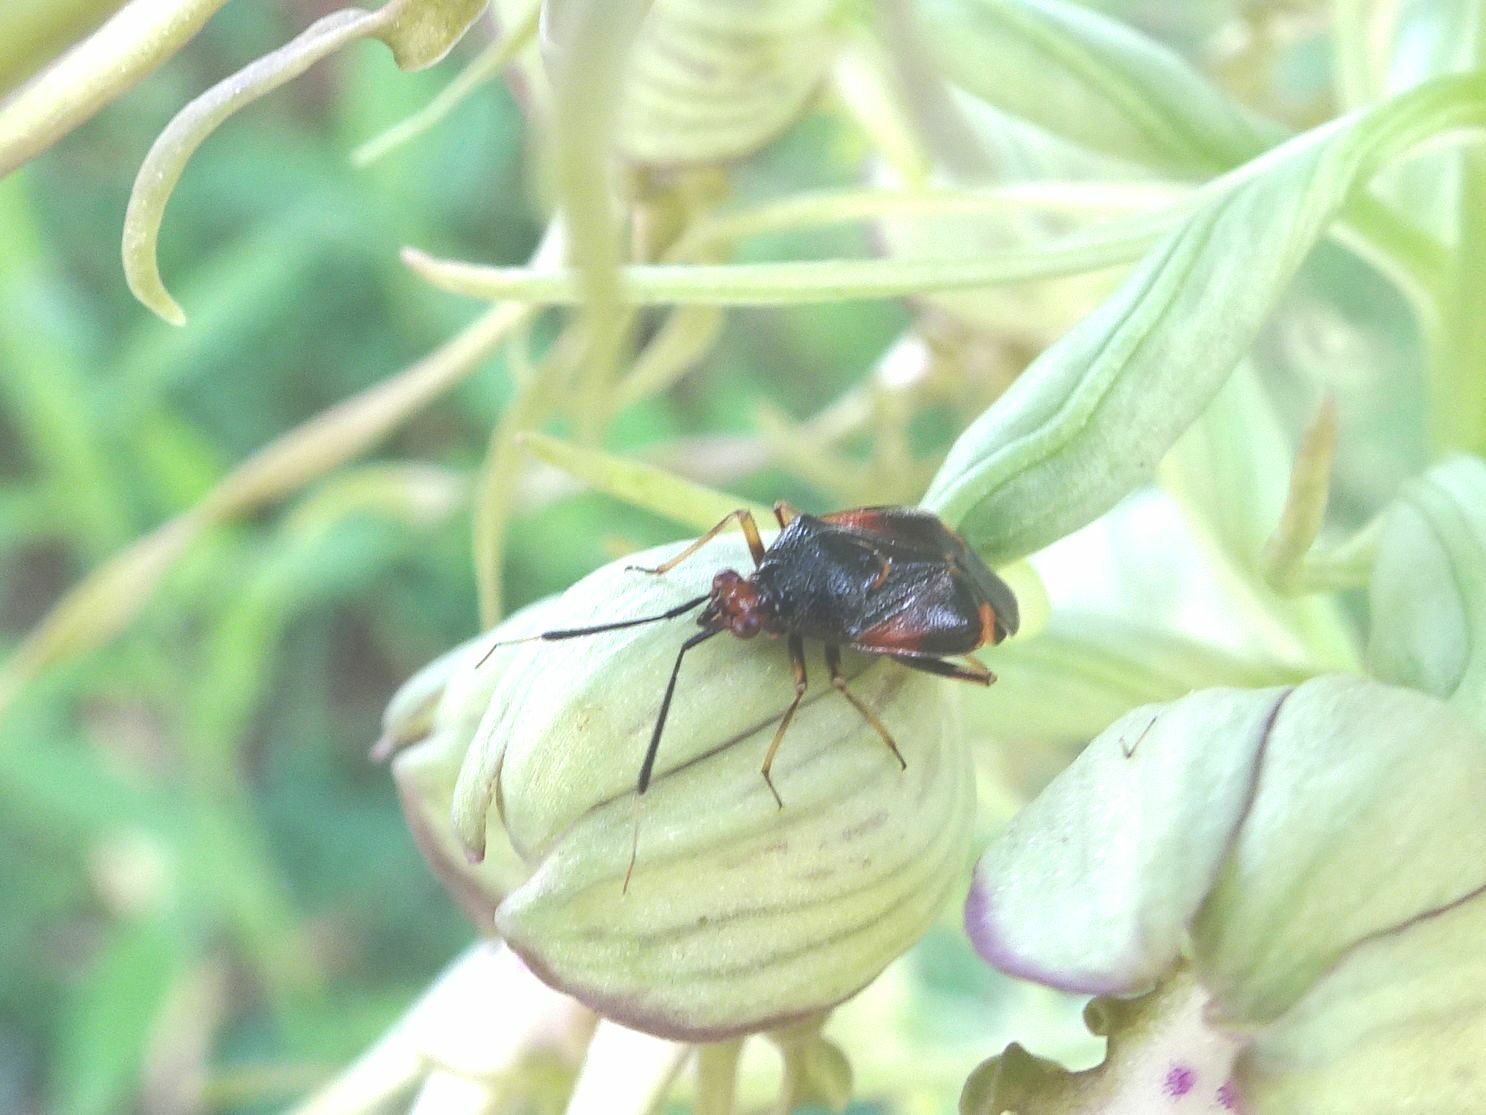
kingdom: Animalia
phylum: Arthropoda
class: Insecta
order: Hemiptera
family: Miridae
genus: Deraeocoris
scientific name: Deraeocoris ruber
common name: Plant bug
